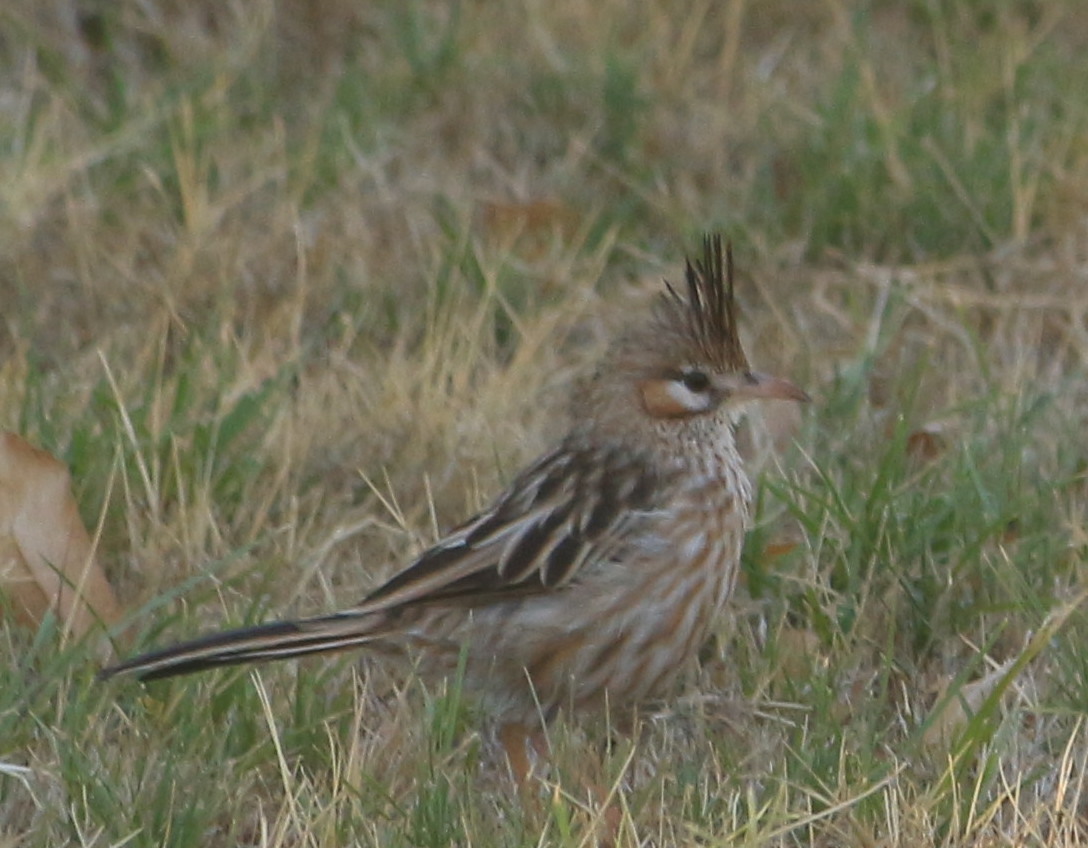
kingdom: Animalia
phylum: Chordata
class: Aves
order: Passeriformes
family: Furnariidae
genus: Coryphistera
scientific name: Coryphistera alaudina
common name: Lark-like brushrunner
